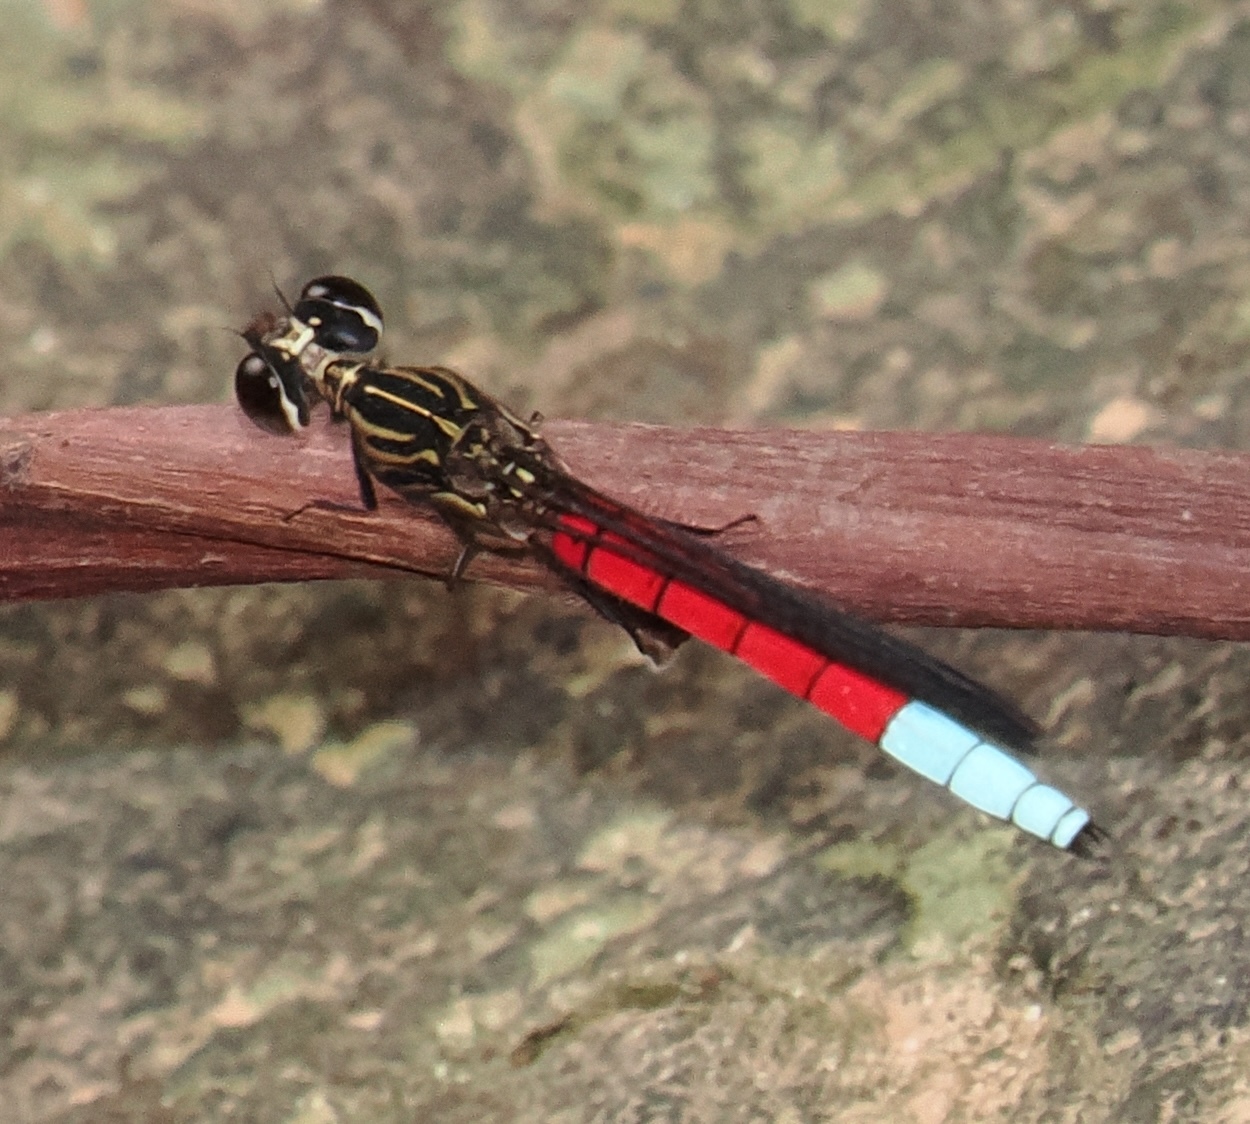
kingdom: Animalia
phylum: Arthropoda
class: Insecta
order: Odonata
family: Chlorocyphidae
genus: Chlorocypha
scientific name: Chlorocypha curta
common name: Blue-tipped jewel
